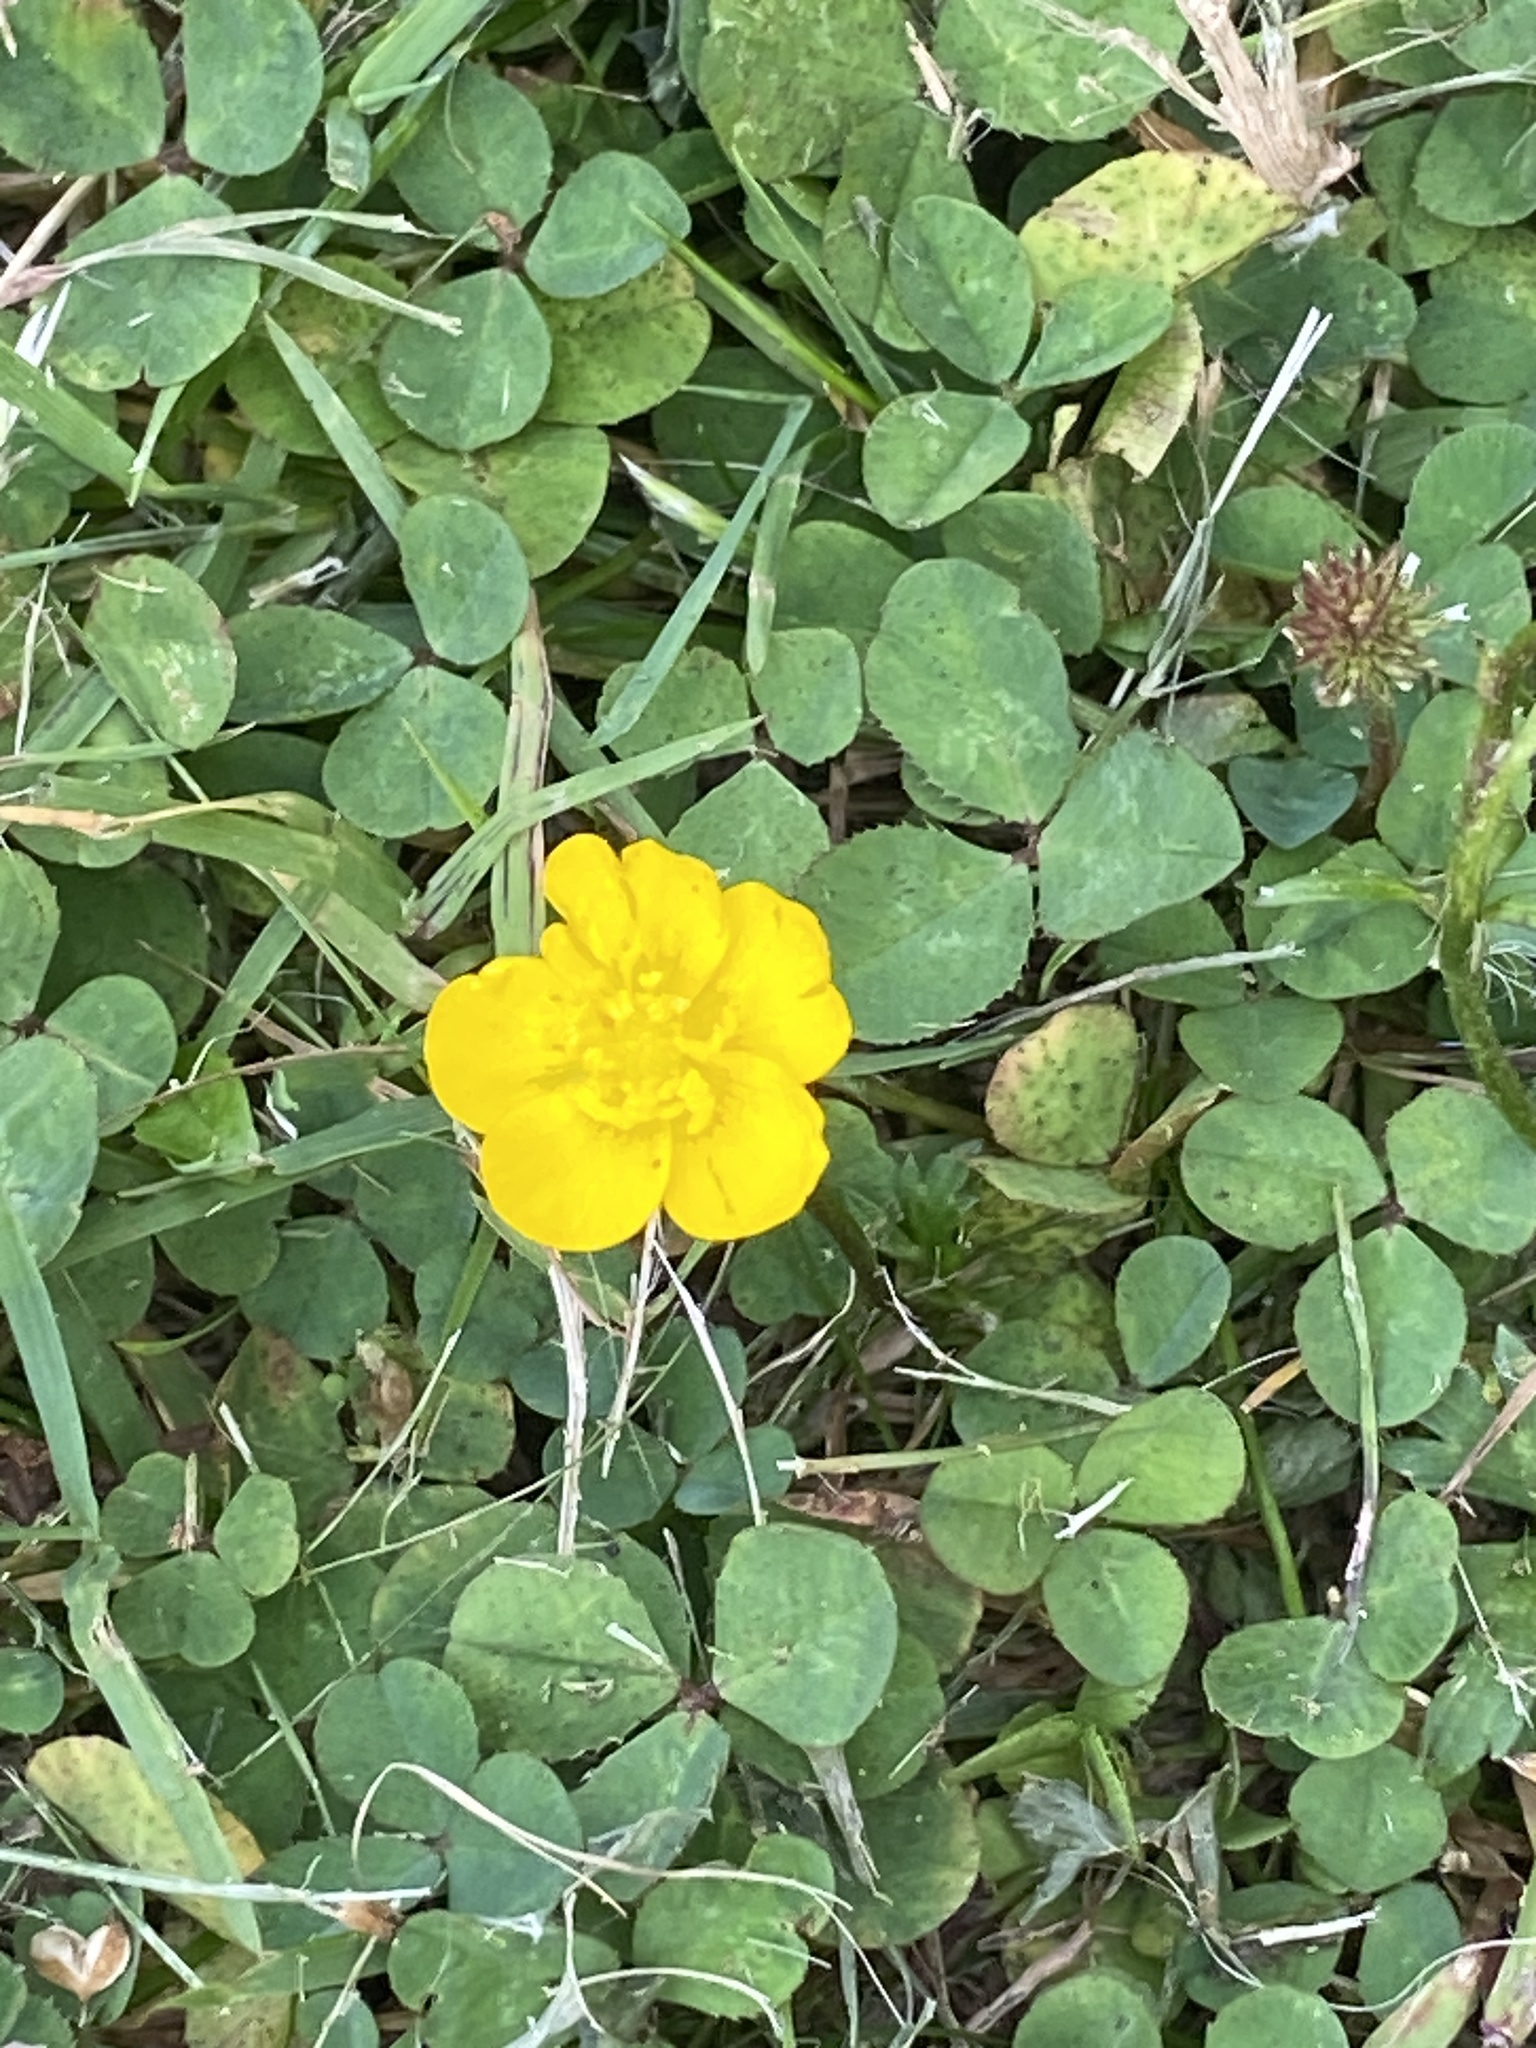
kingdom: Plantae
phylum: Tracheophyta
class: Magnoliopsida
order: Ranunculales
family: Ranunculaceae
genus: Ranunculus
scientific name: Ranunculus repens
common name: Creeping buttercup
